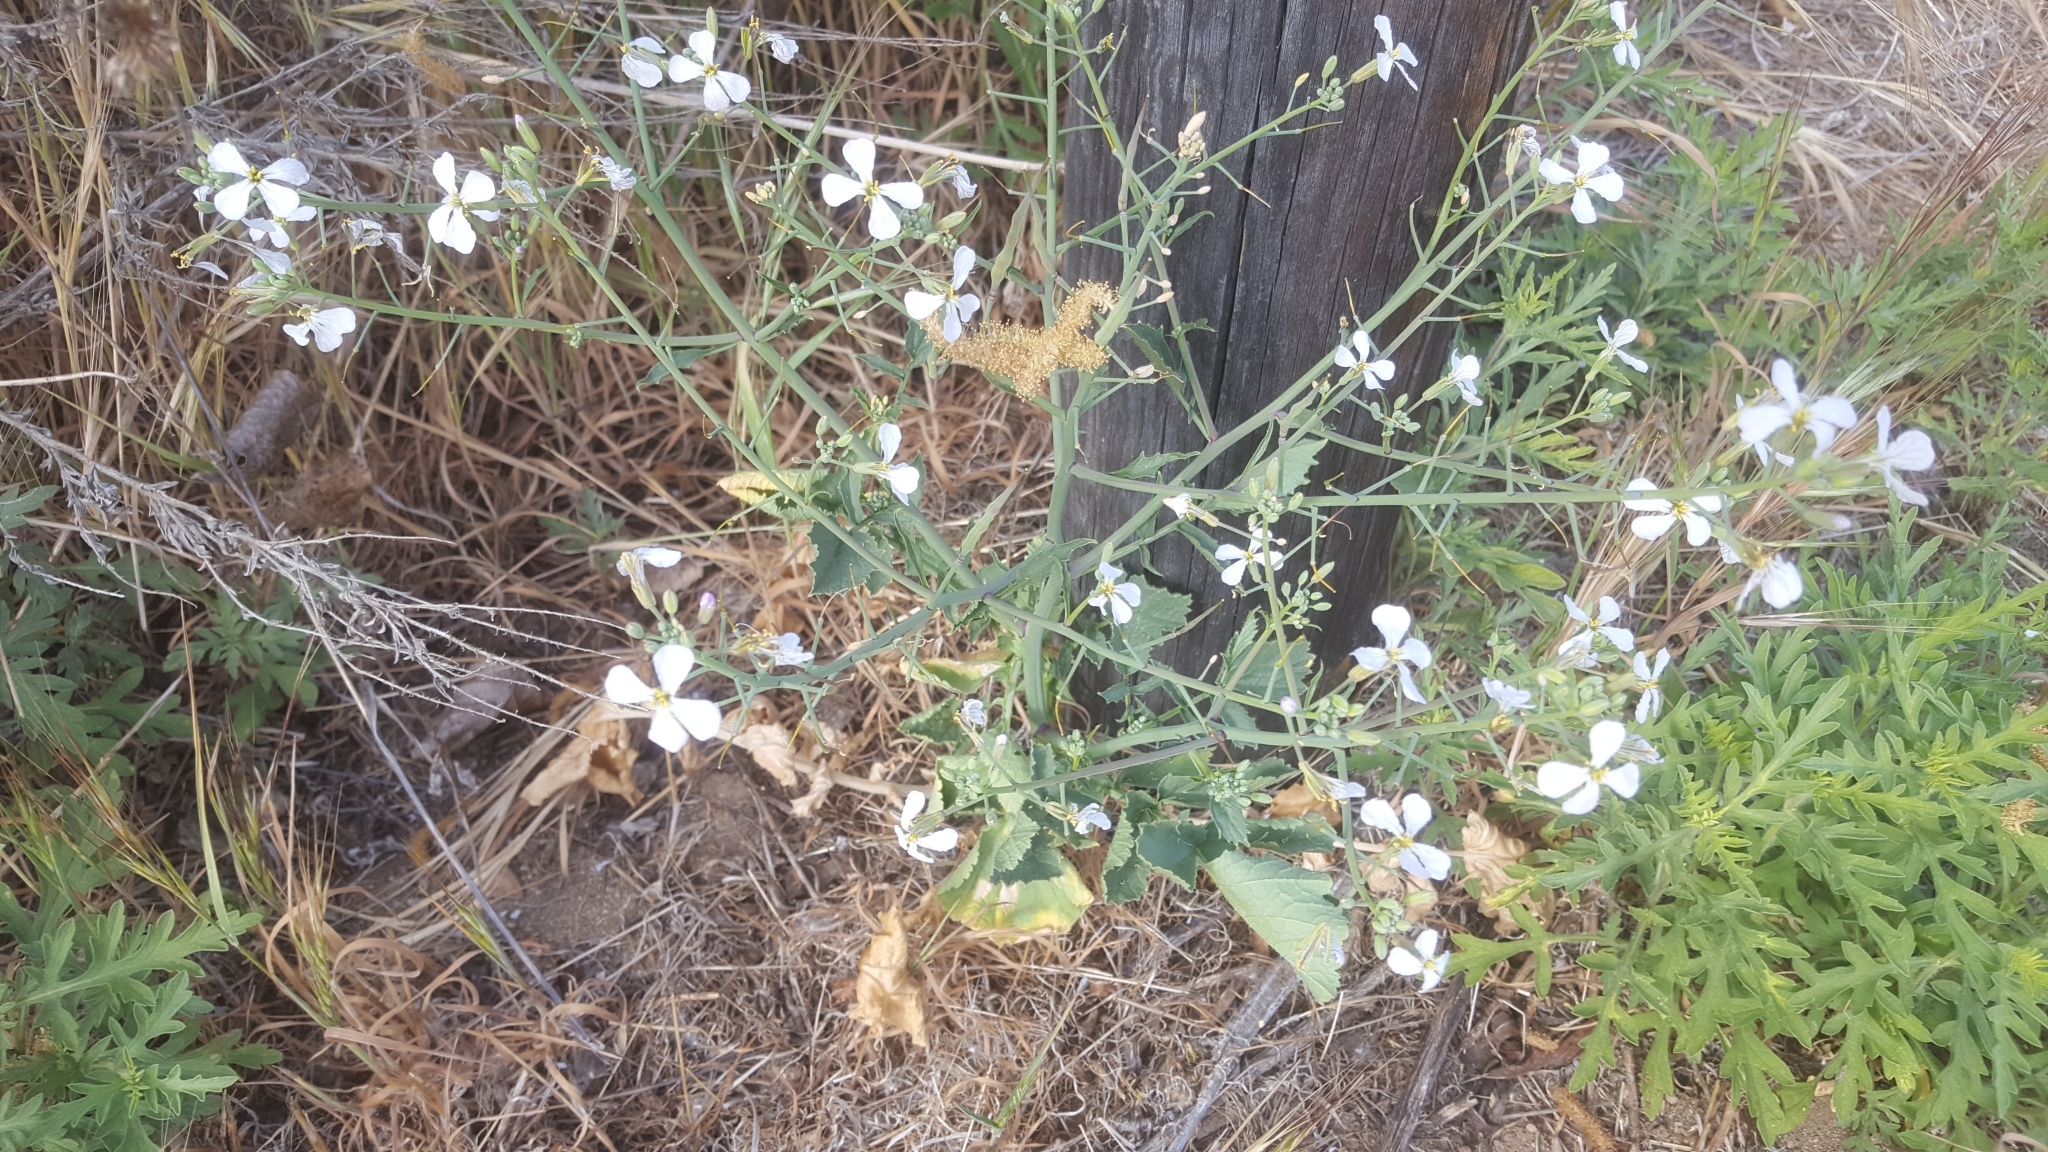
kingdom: Plantae
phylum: Tracheophyta
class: Magnoliopsida
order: Brassicales
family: Brassicaceae
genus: Raphanus
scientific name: Raphanus sativus
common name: Cultivated radish
